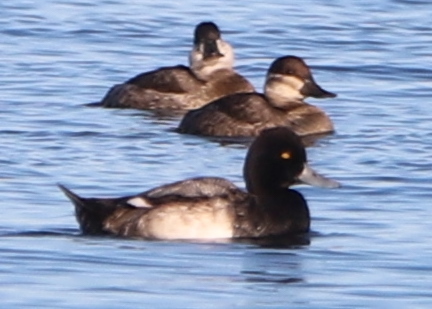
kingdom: Animalia
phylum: Chordata
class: Aves
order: Anseriformes
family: Anatidae
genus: Aythya
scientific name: Aythya marila
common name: Greater scaup
